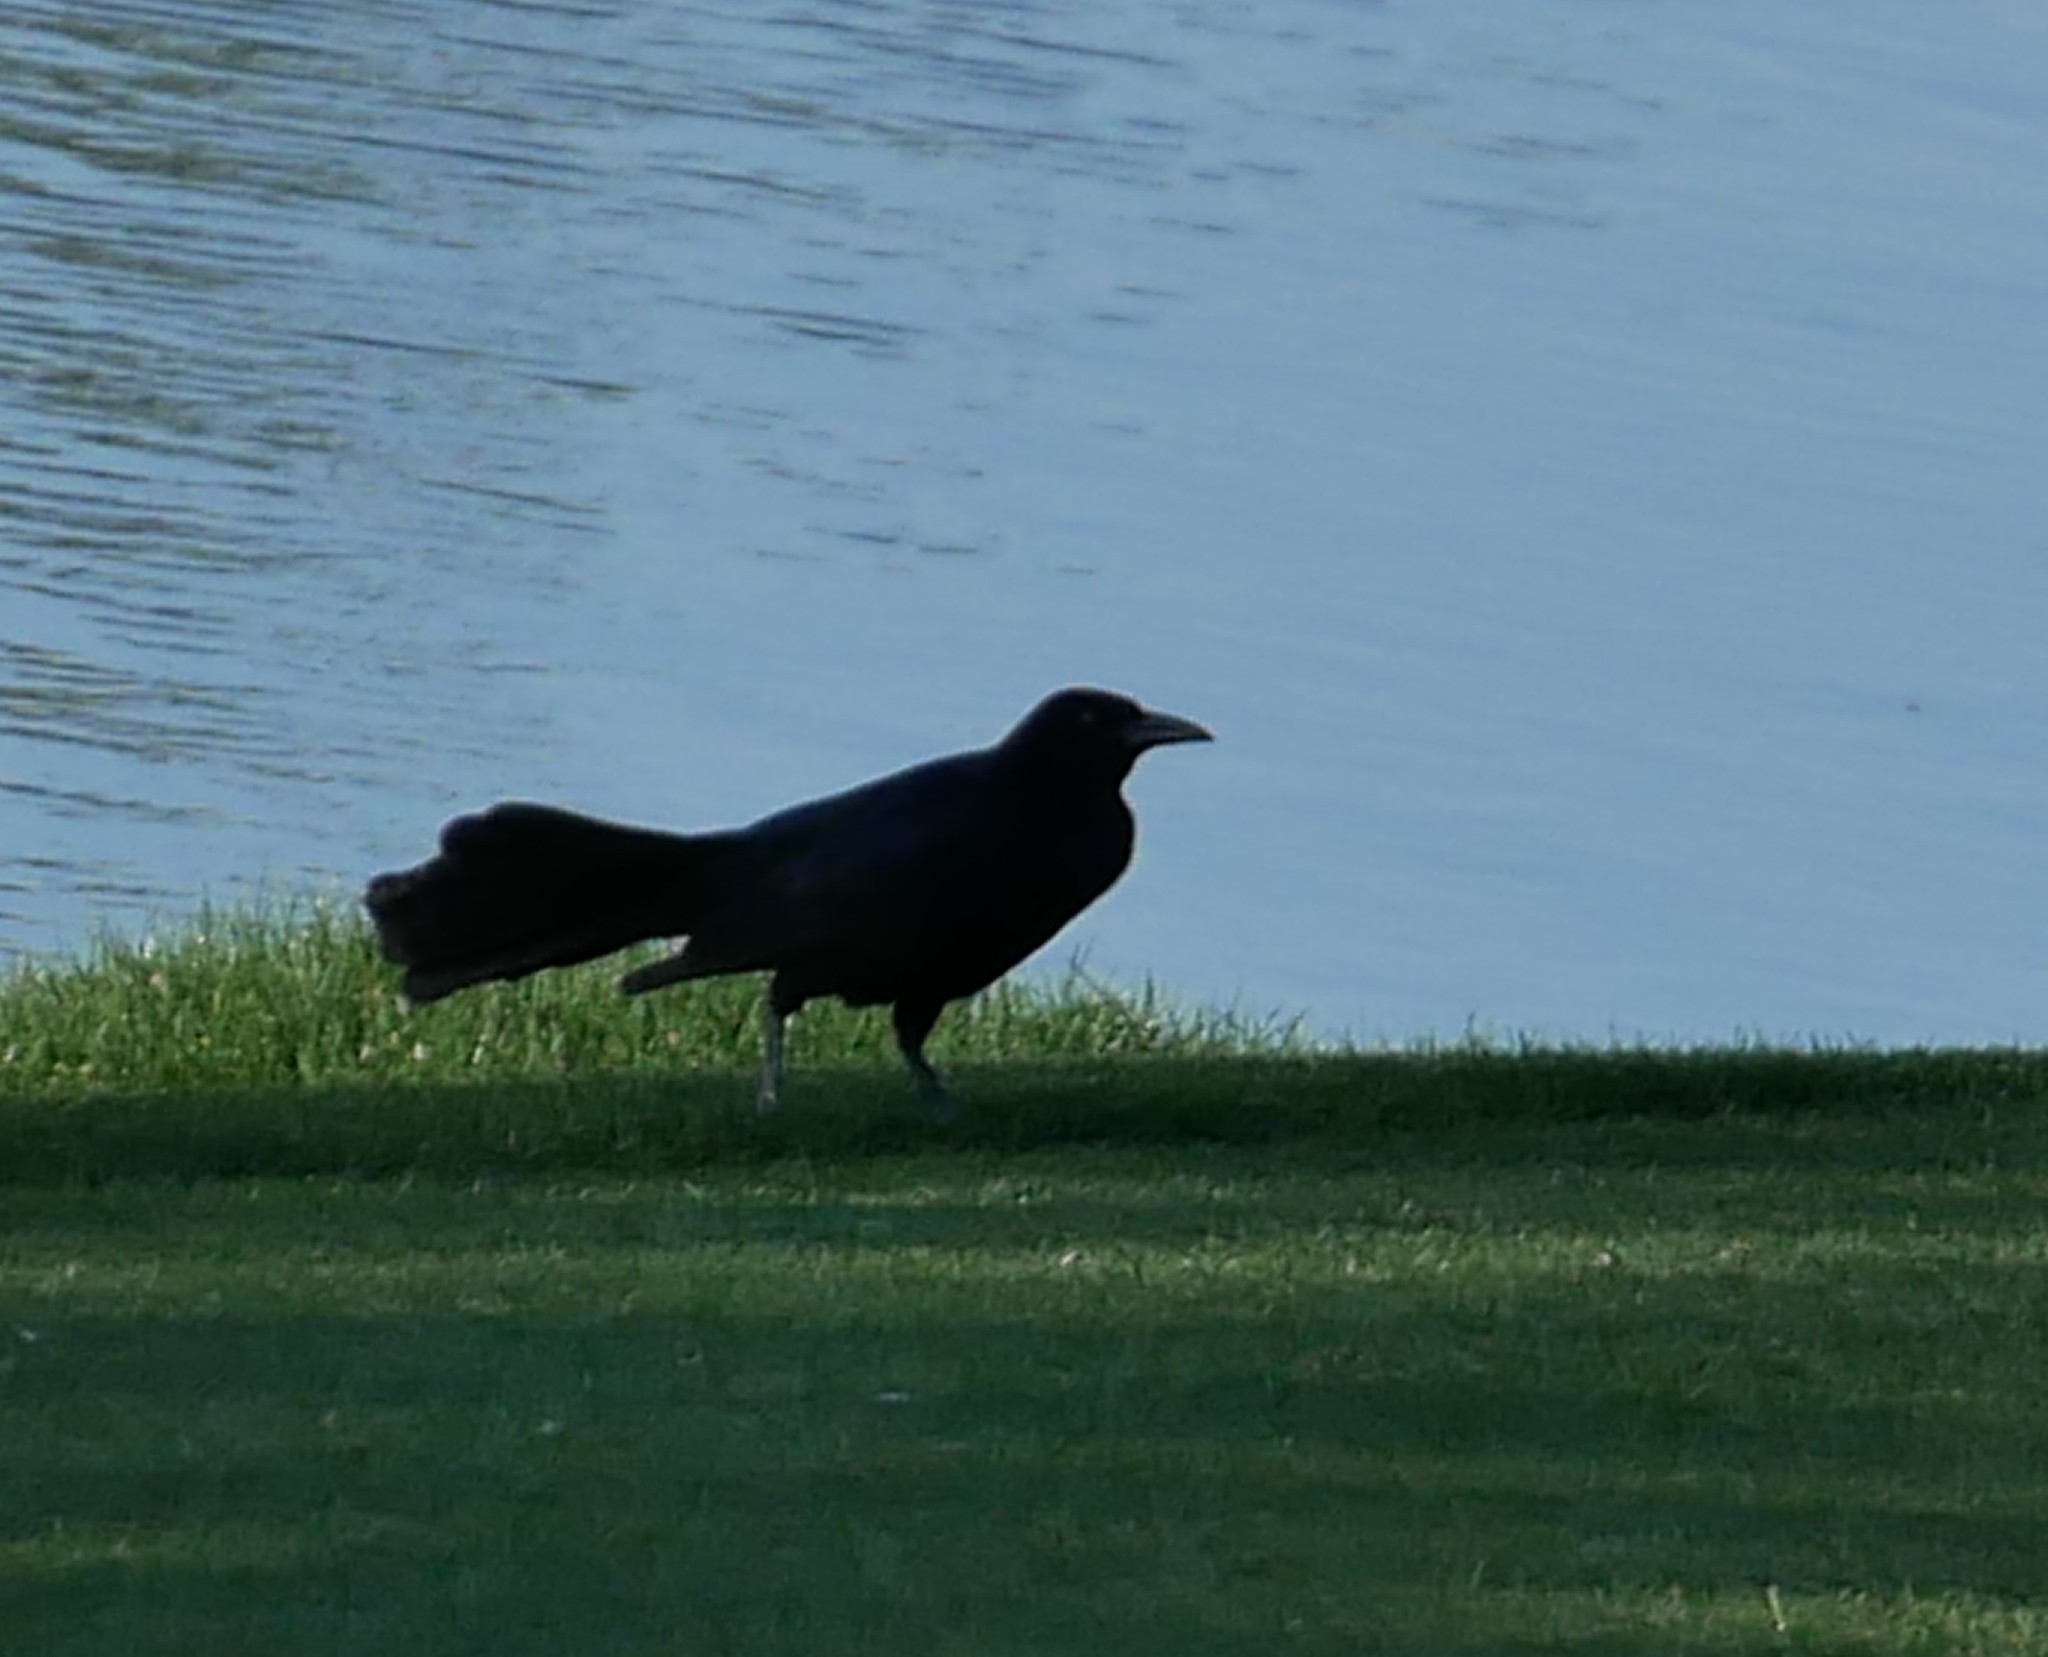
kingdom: Animalia
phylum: Chordata
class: Aves
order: Passeriformes
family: Icteridae
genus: Quiscalus
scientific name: Quiscalus mexicanus
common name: Great-tailed grackle
